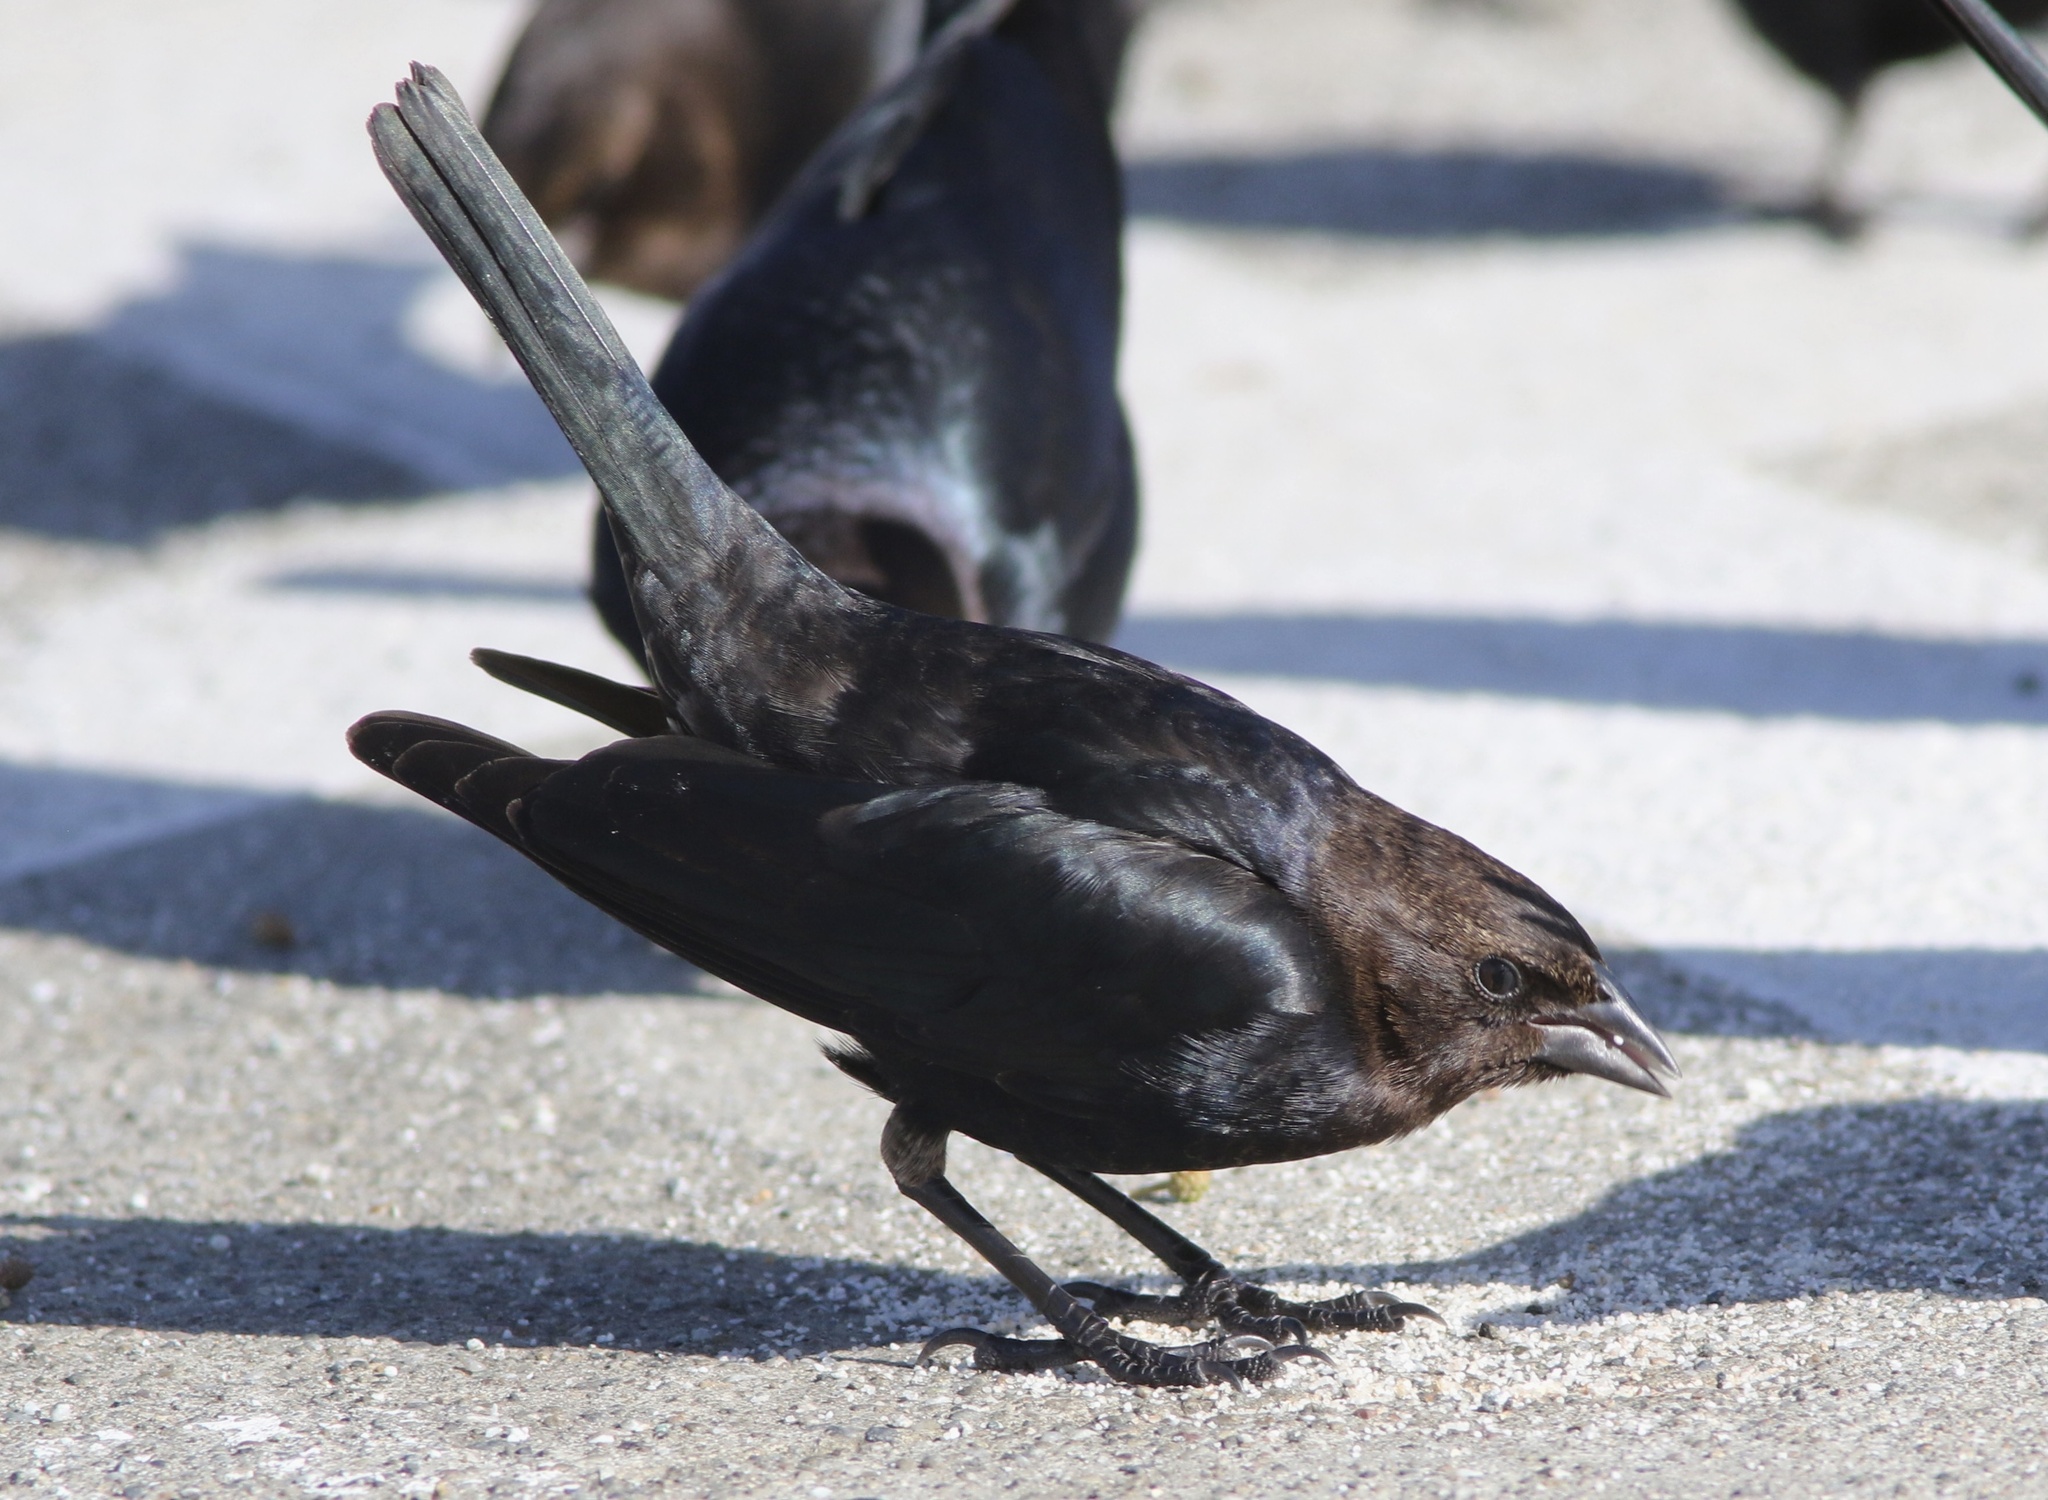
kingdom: Animalia
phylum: Chordata
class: Aves
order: Passeriformes
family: Icteridae
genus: Molothrus
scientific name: Molothrus ater
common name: Brown-headed cowbird
